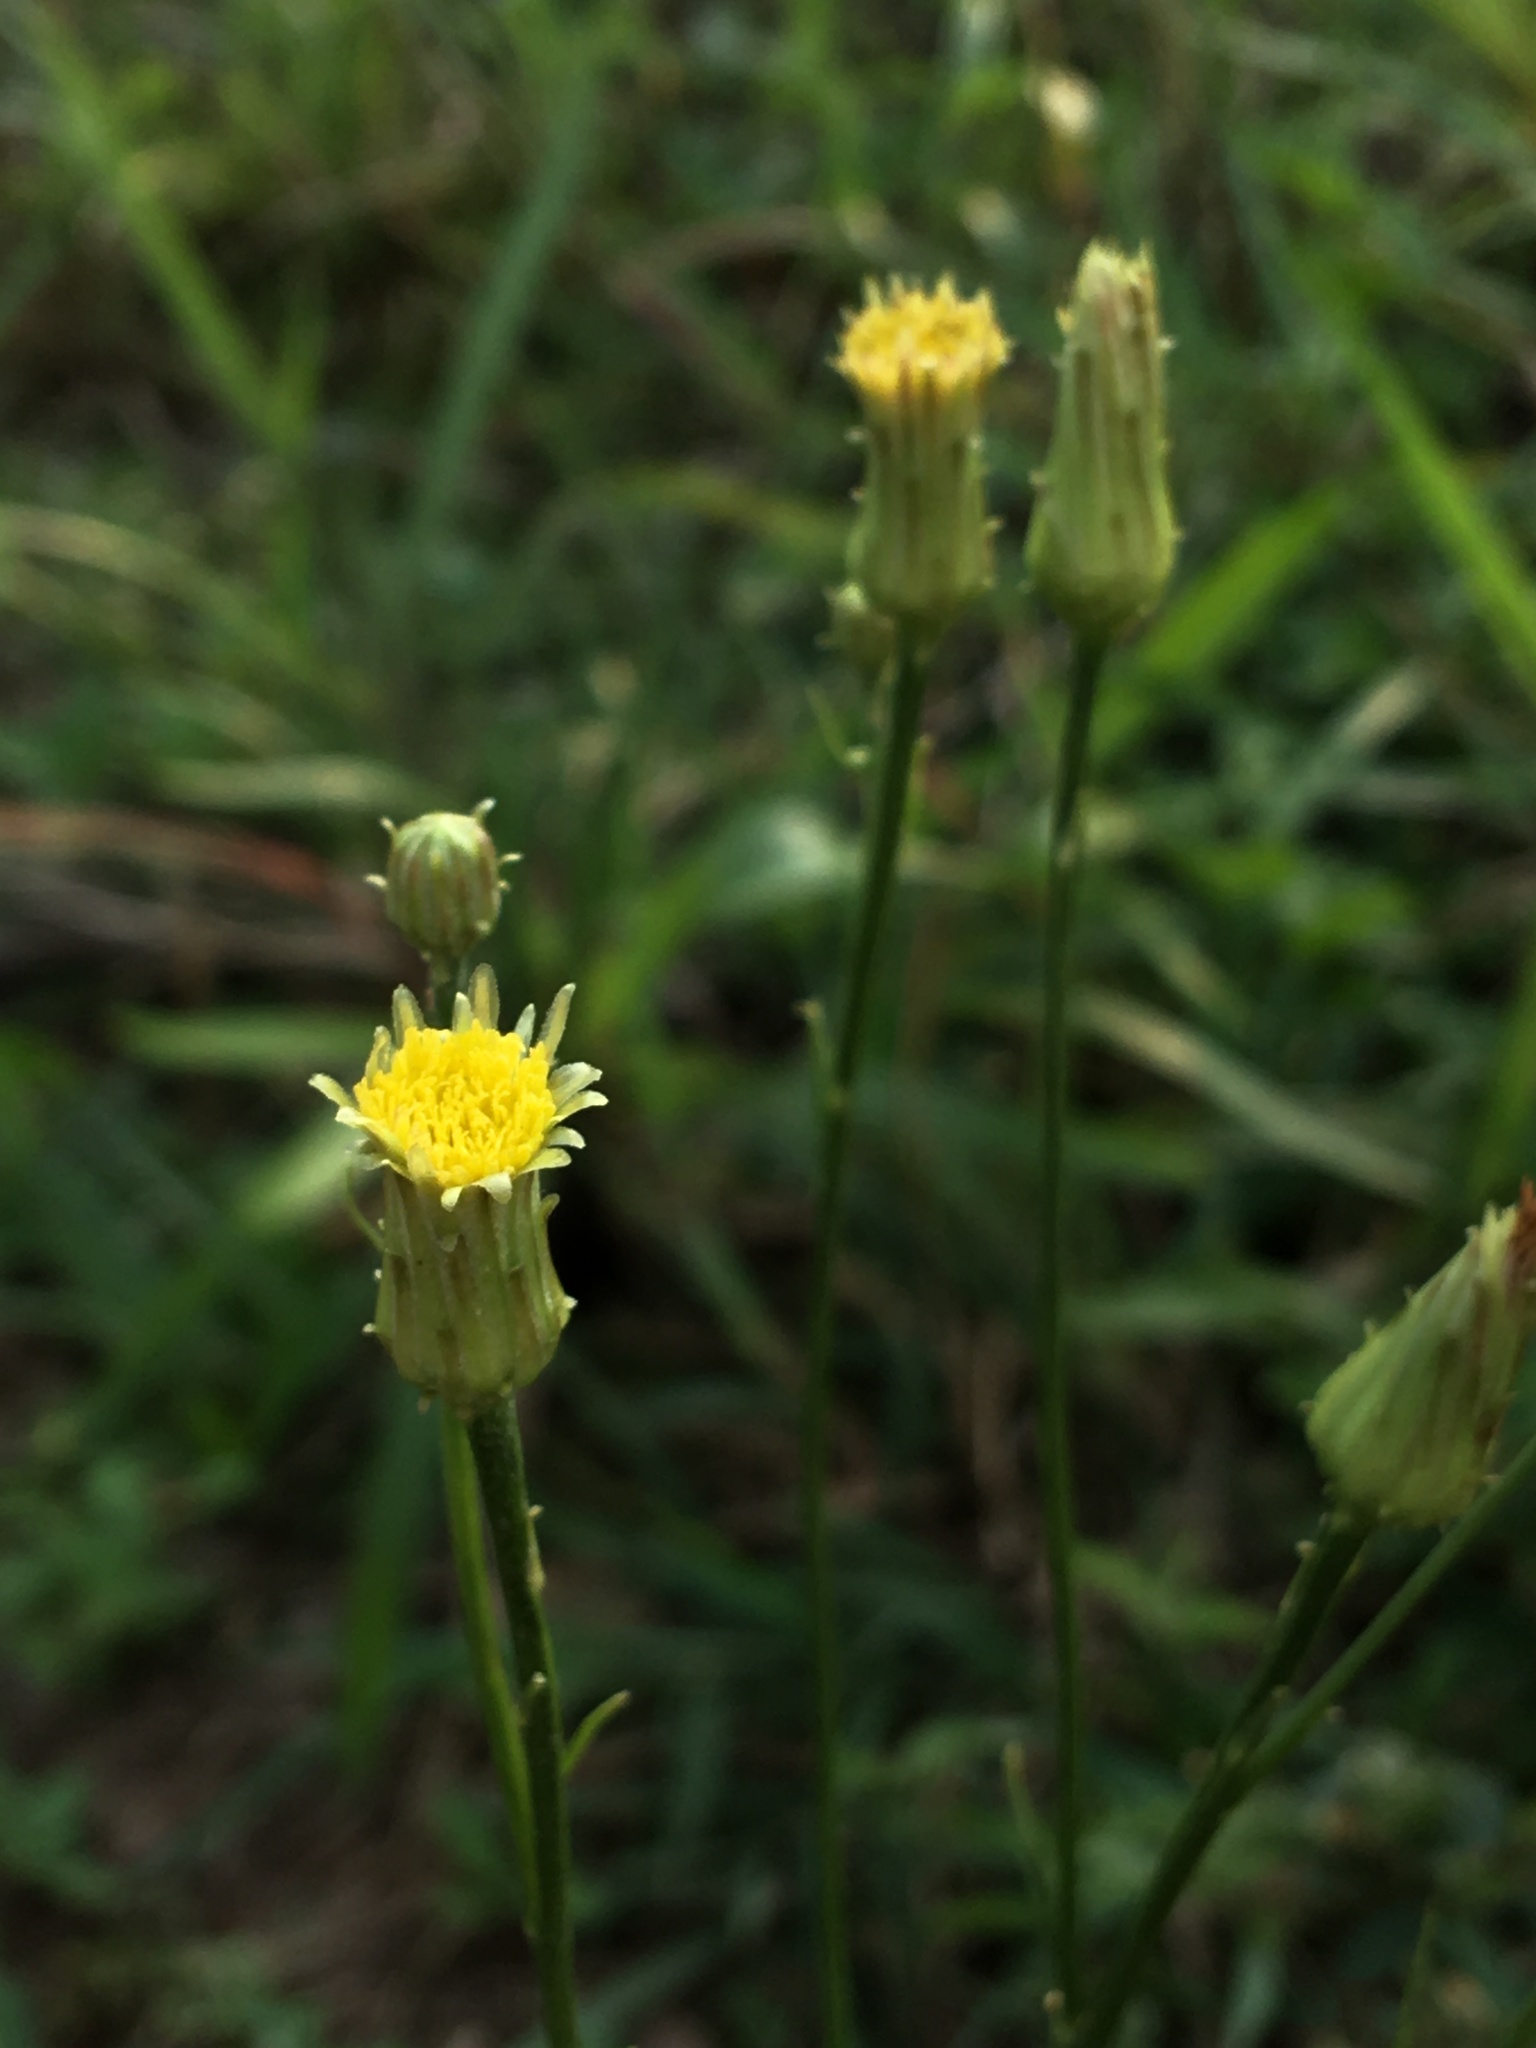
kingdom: Plantae
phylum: Tracheophyta
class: Magnoliopsida
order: Asterales
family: Asteraceae
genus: Hypochaeris
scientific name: Hypochaeris chillensis
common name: Brazilian cat's ear
